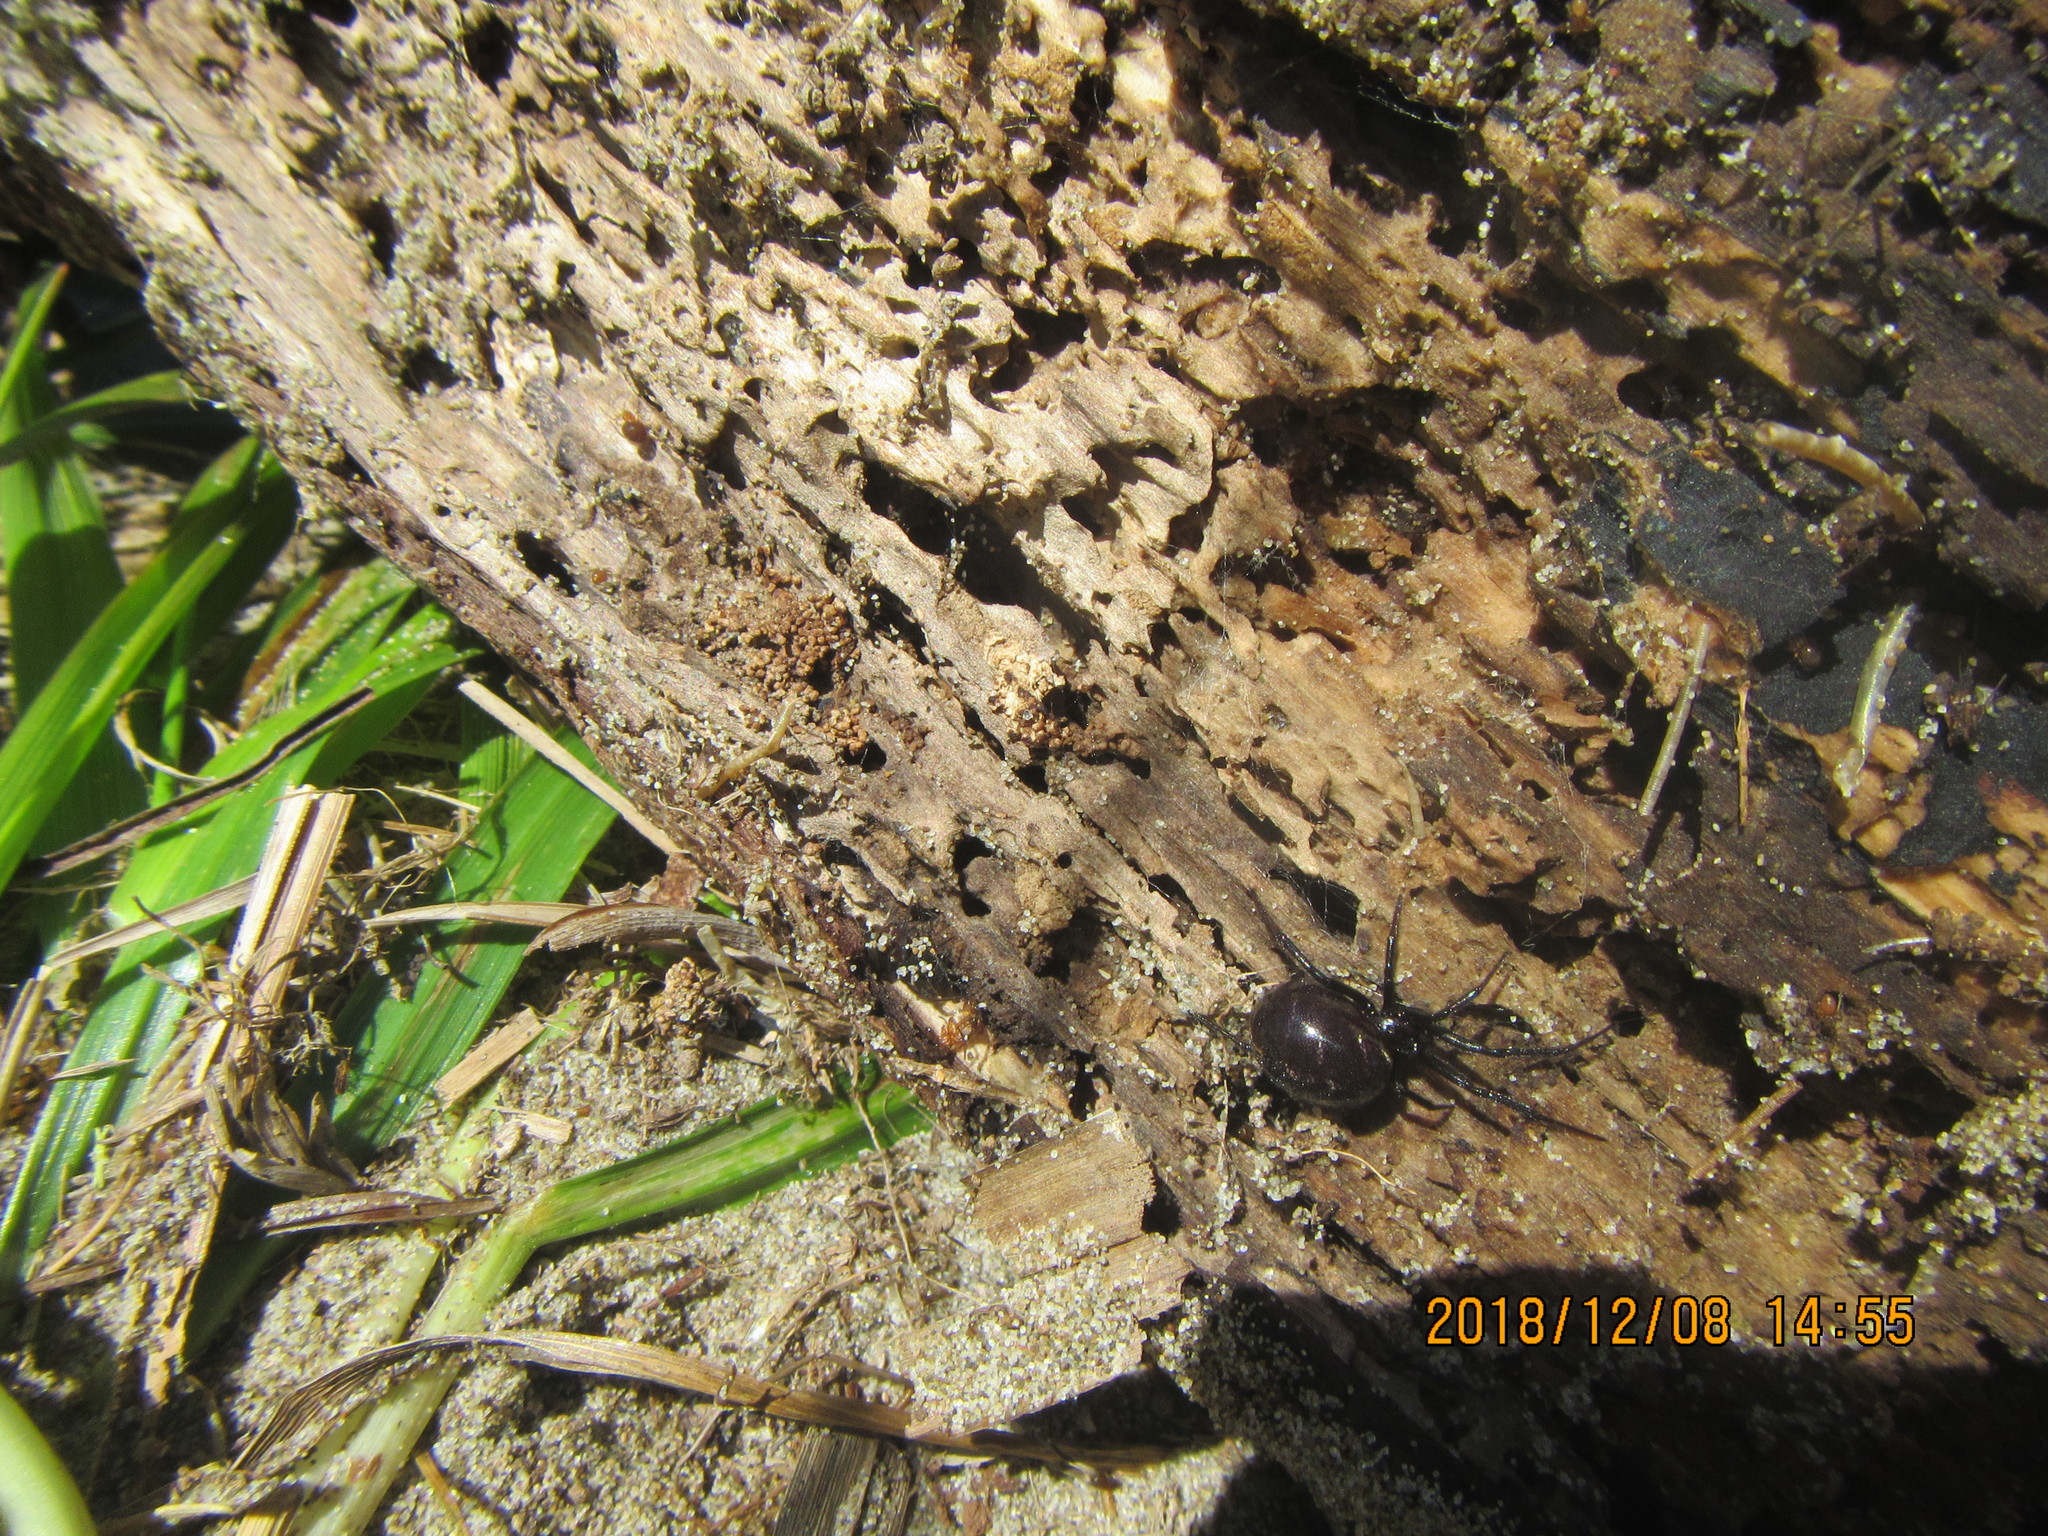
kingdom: Animalia
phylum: Arthropoda
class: Arachnida
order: Araneae
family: Theridiidae
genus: Steatoda
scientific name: Steatoda capensis
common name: Cobweb weaver
